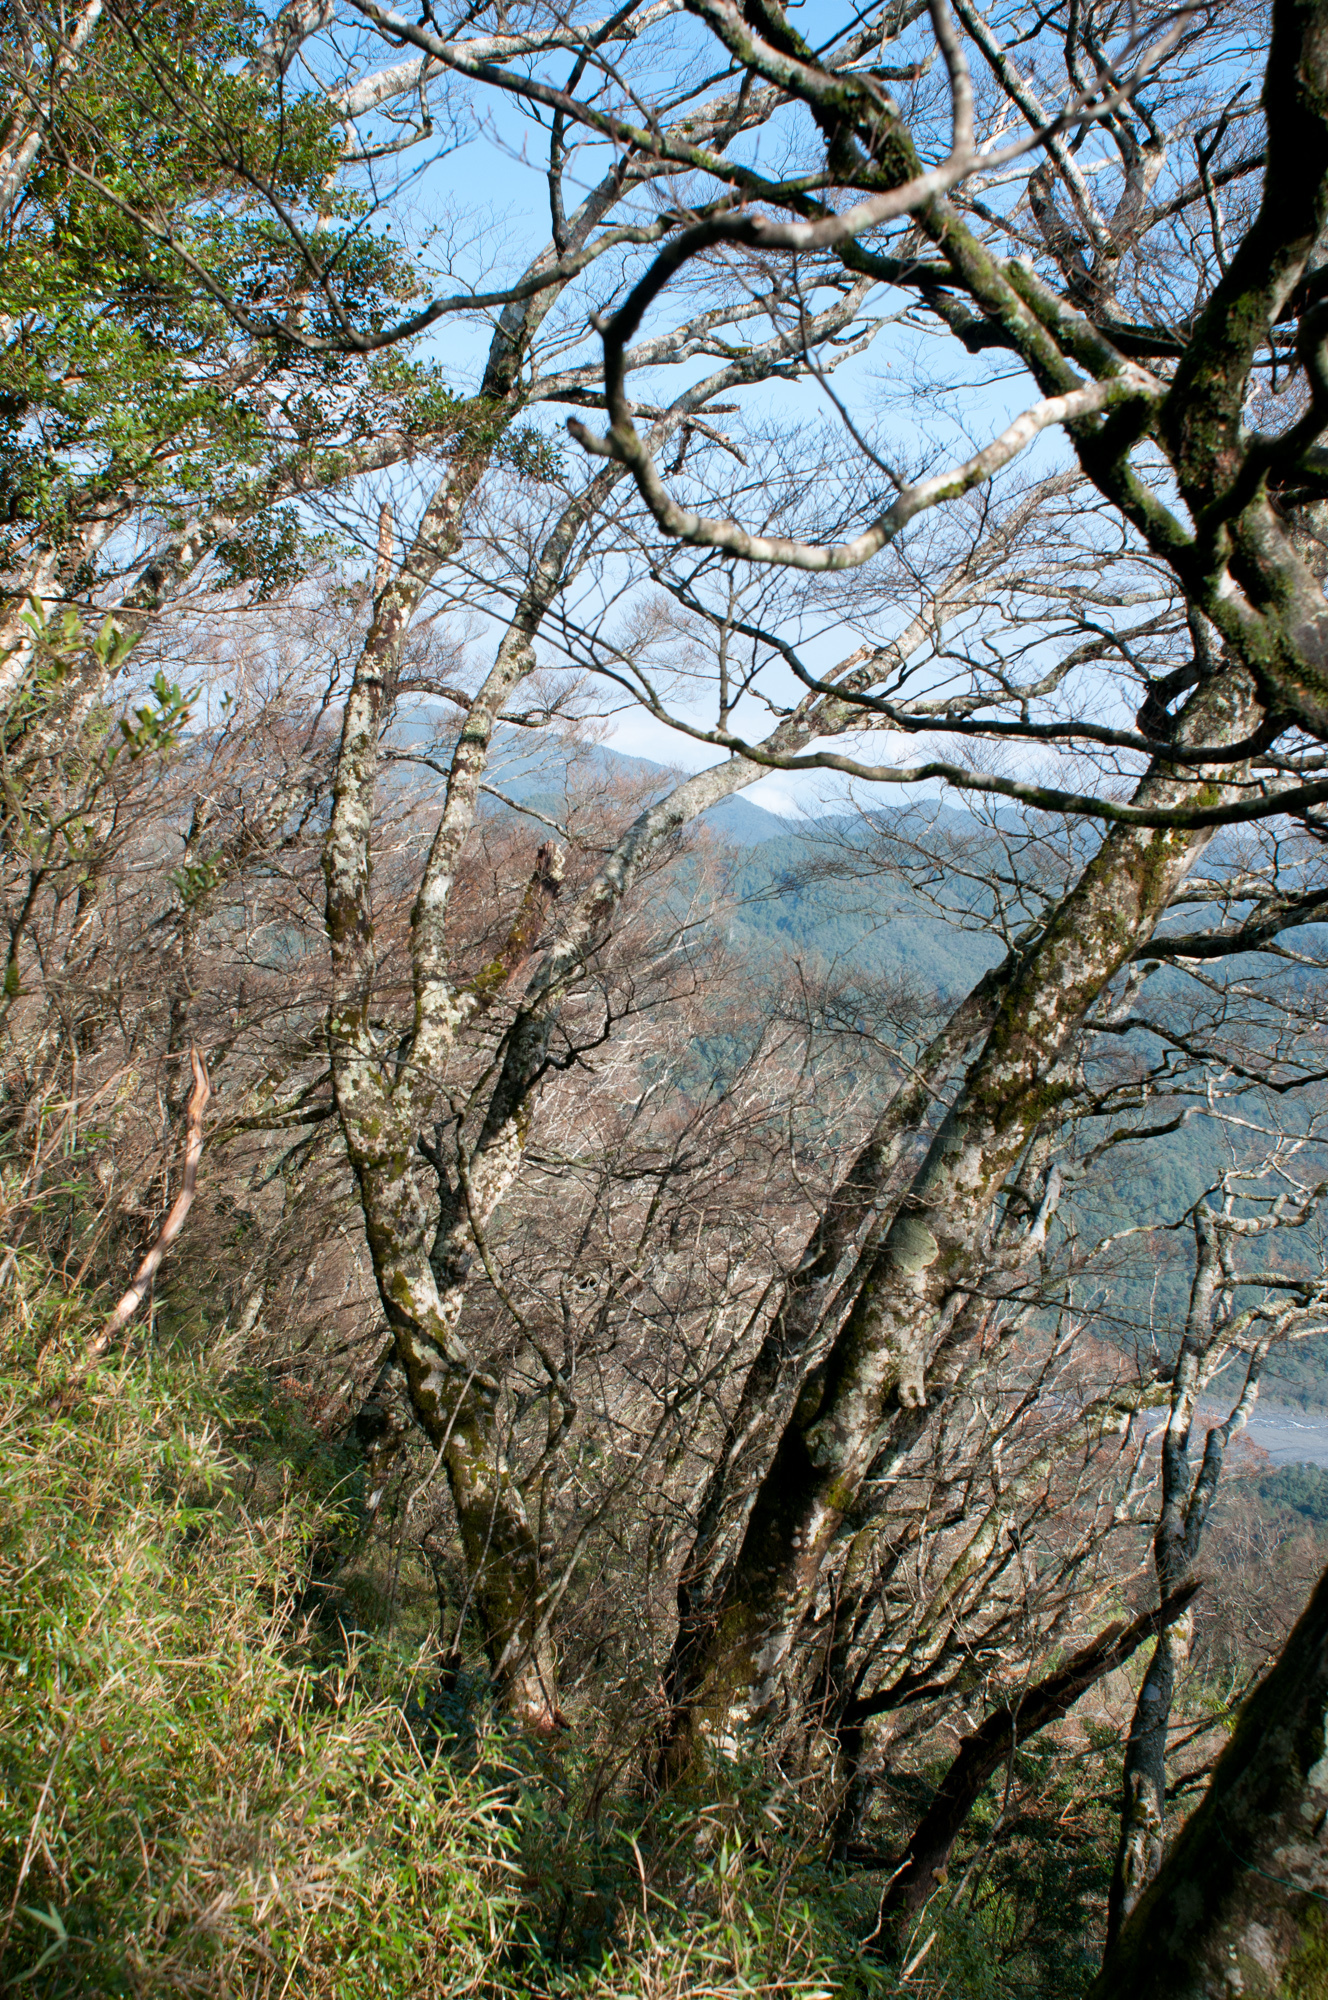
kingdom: Plantae
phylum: Tracheophyta
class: Magnoliopsida
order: Fagales
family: Fagaceae
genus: Fagus
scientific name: Fagus hayatae
